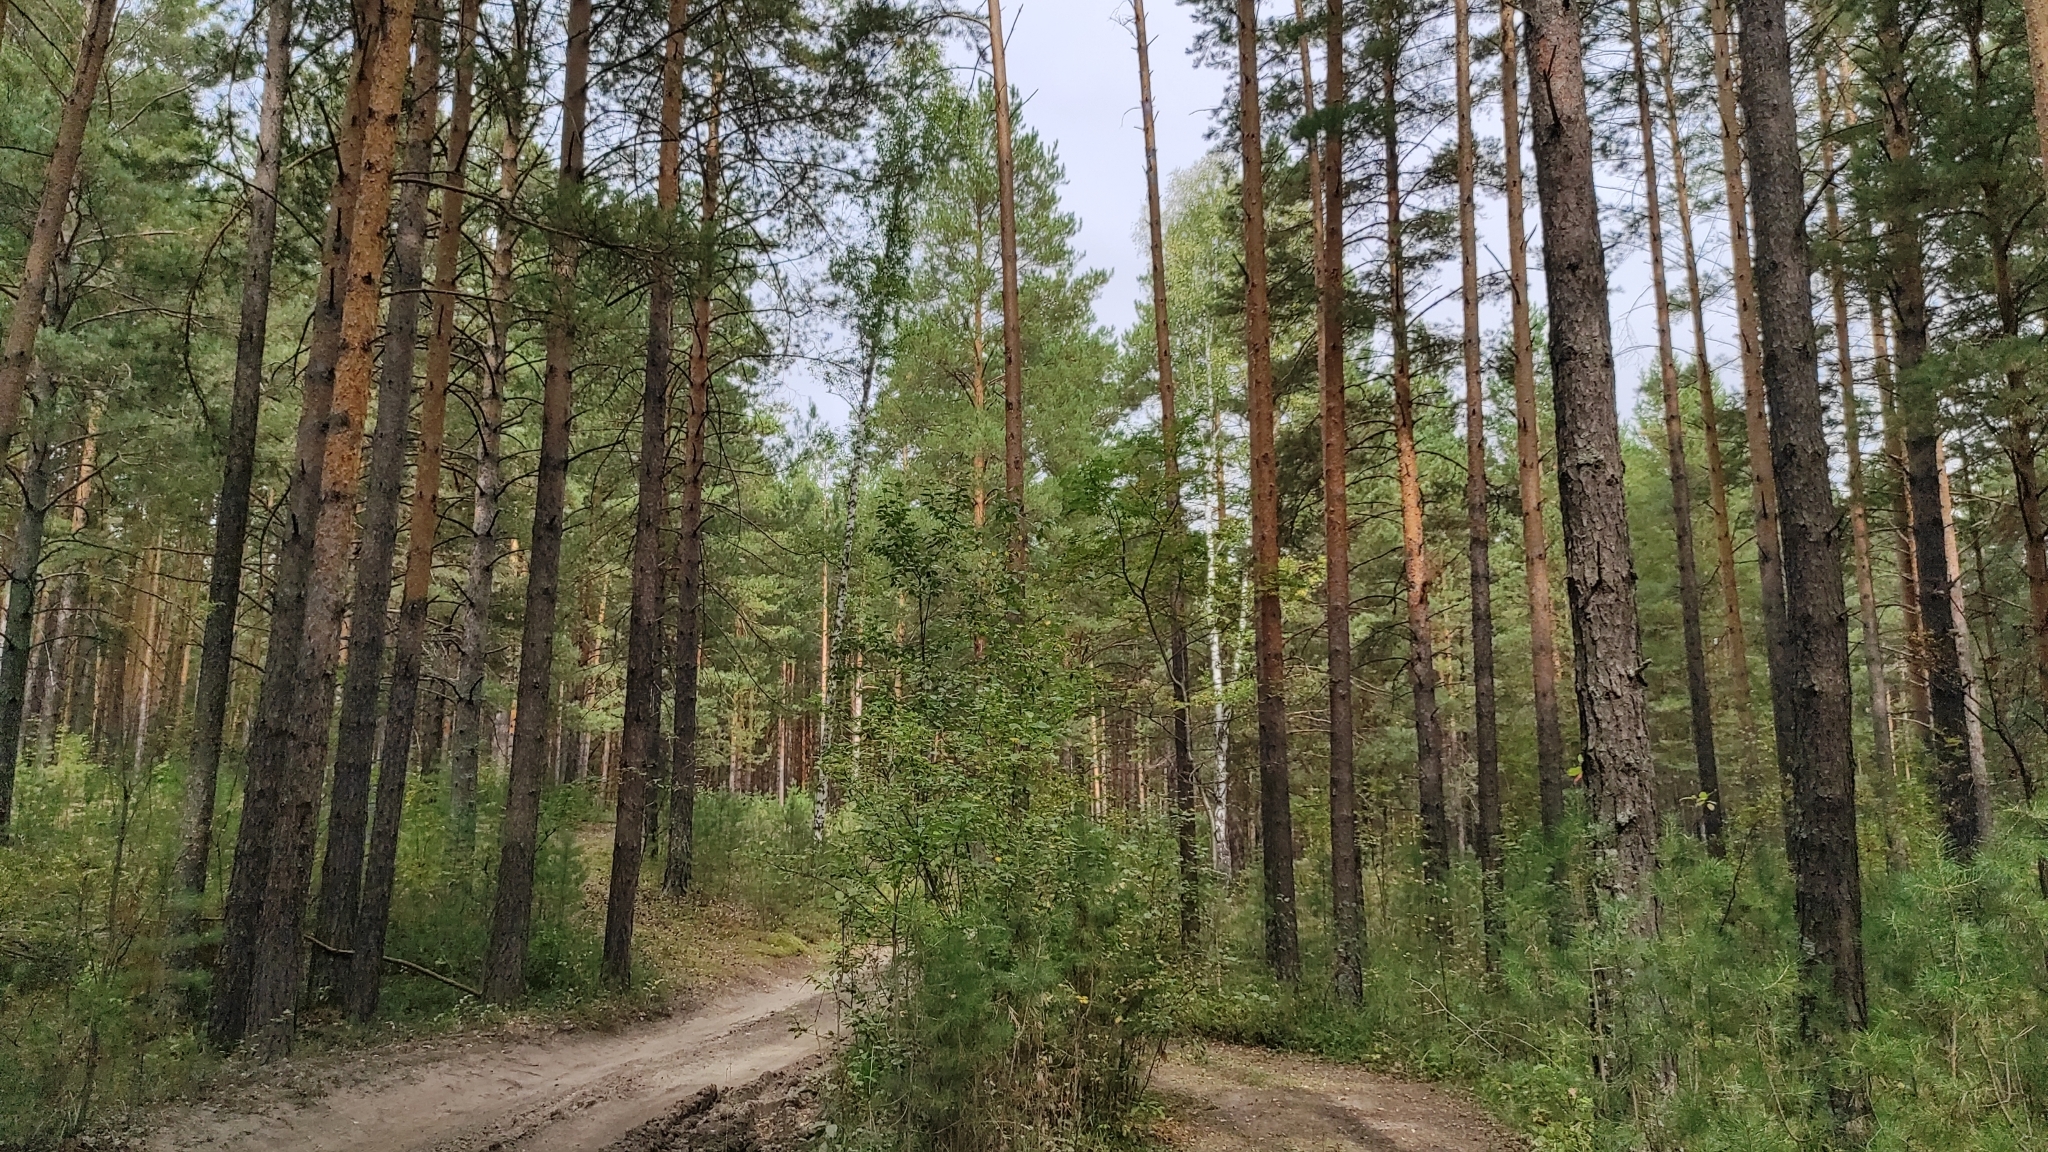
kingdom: Plantae
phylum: Tracheophyta
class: Pinopsida
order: Pinales
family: Pinaceae
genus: Pinus
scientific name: Pinus sylvestris
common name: Scots pine
